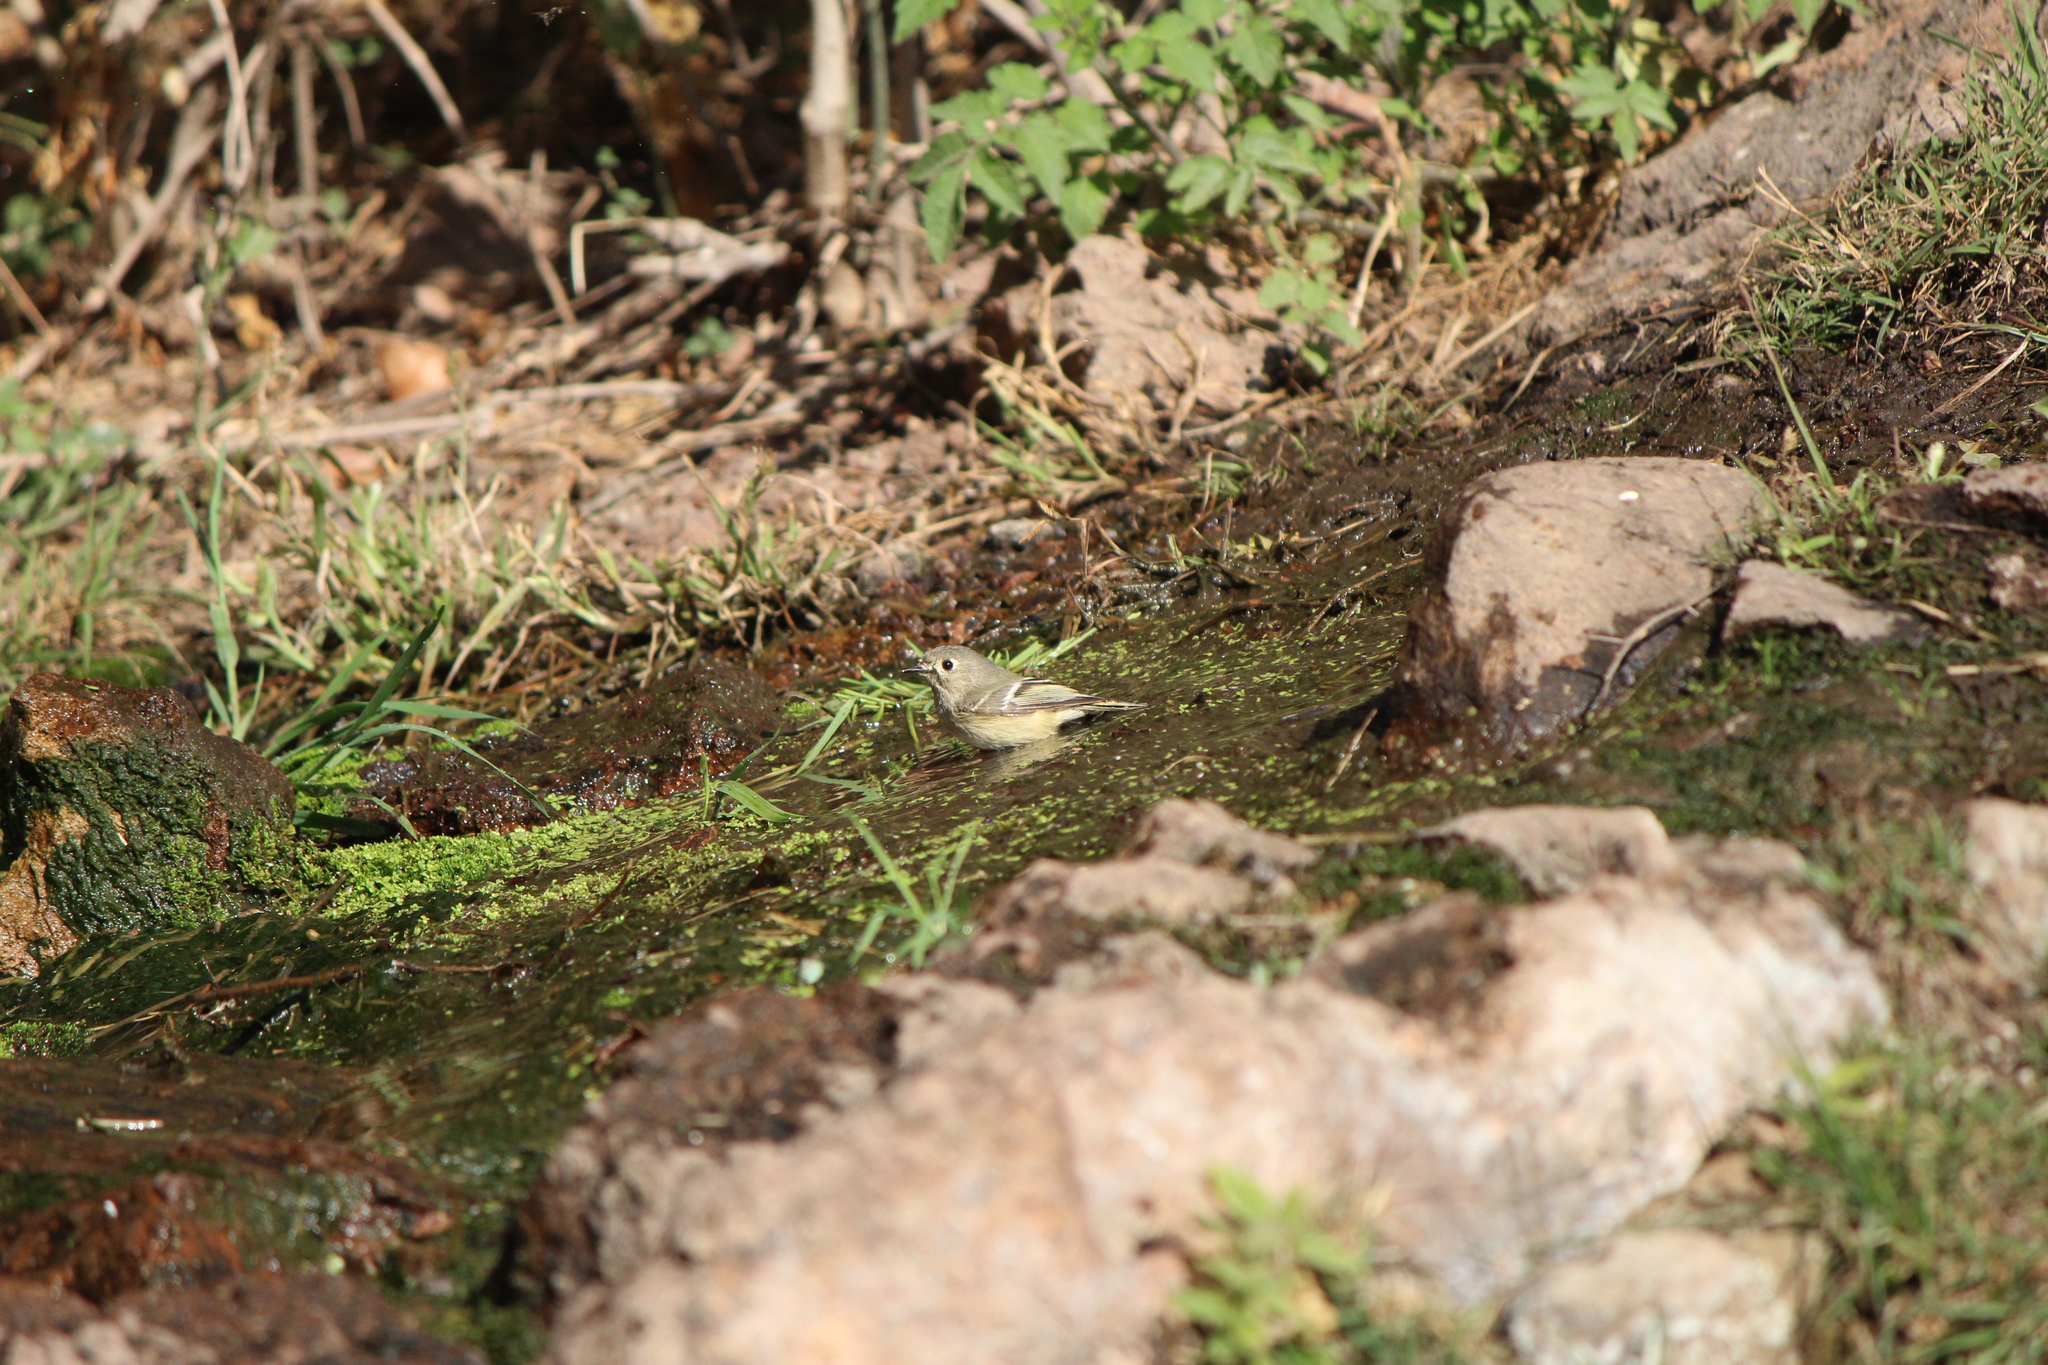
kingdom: Animalia
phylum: Chordata
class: Aves
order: Passeriformes
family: Regulidae
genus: Regulus
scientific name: Regulus calendula
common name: Ruby-crowned kinglet
